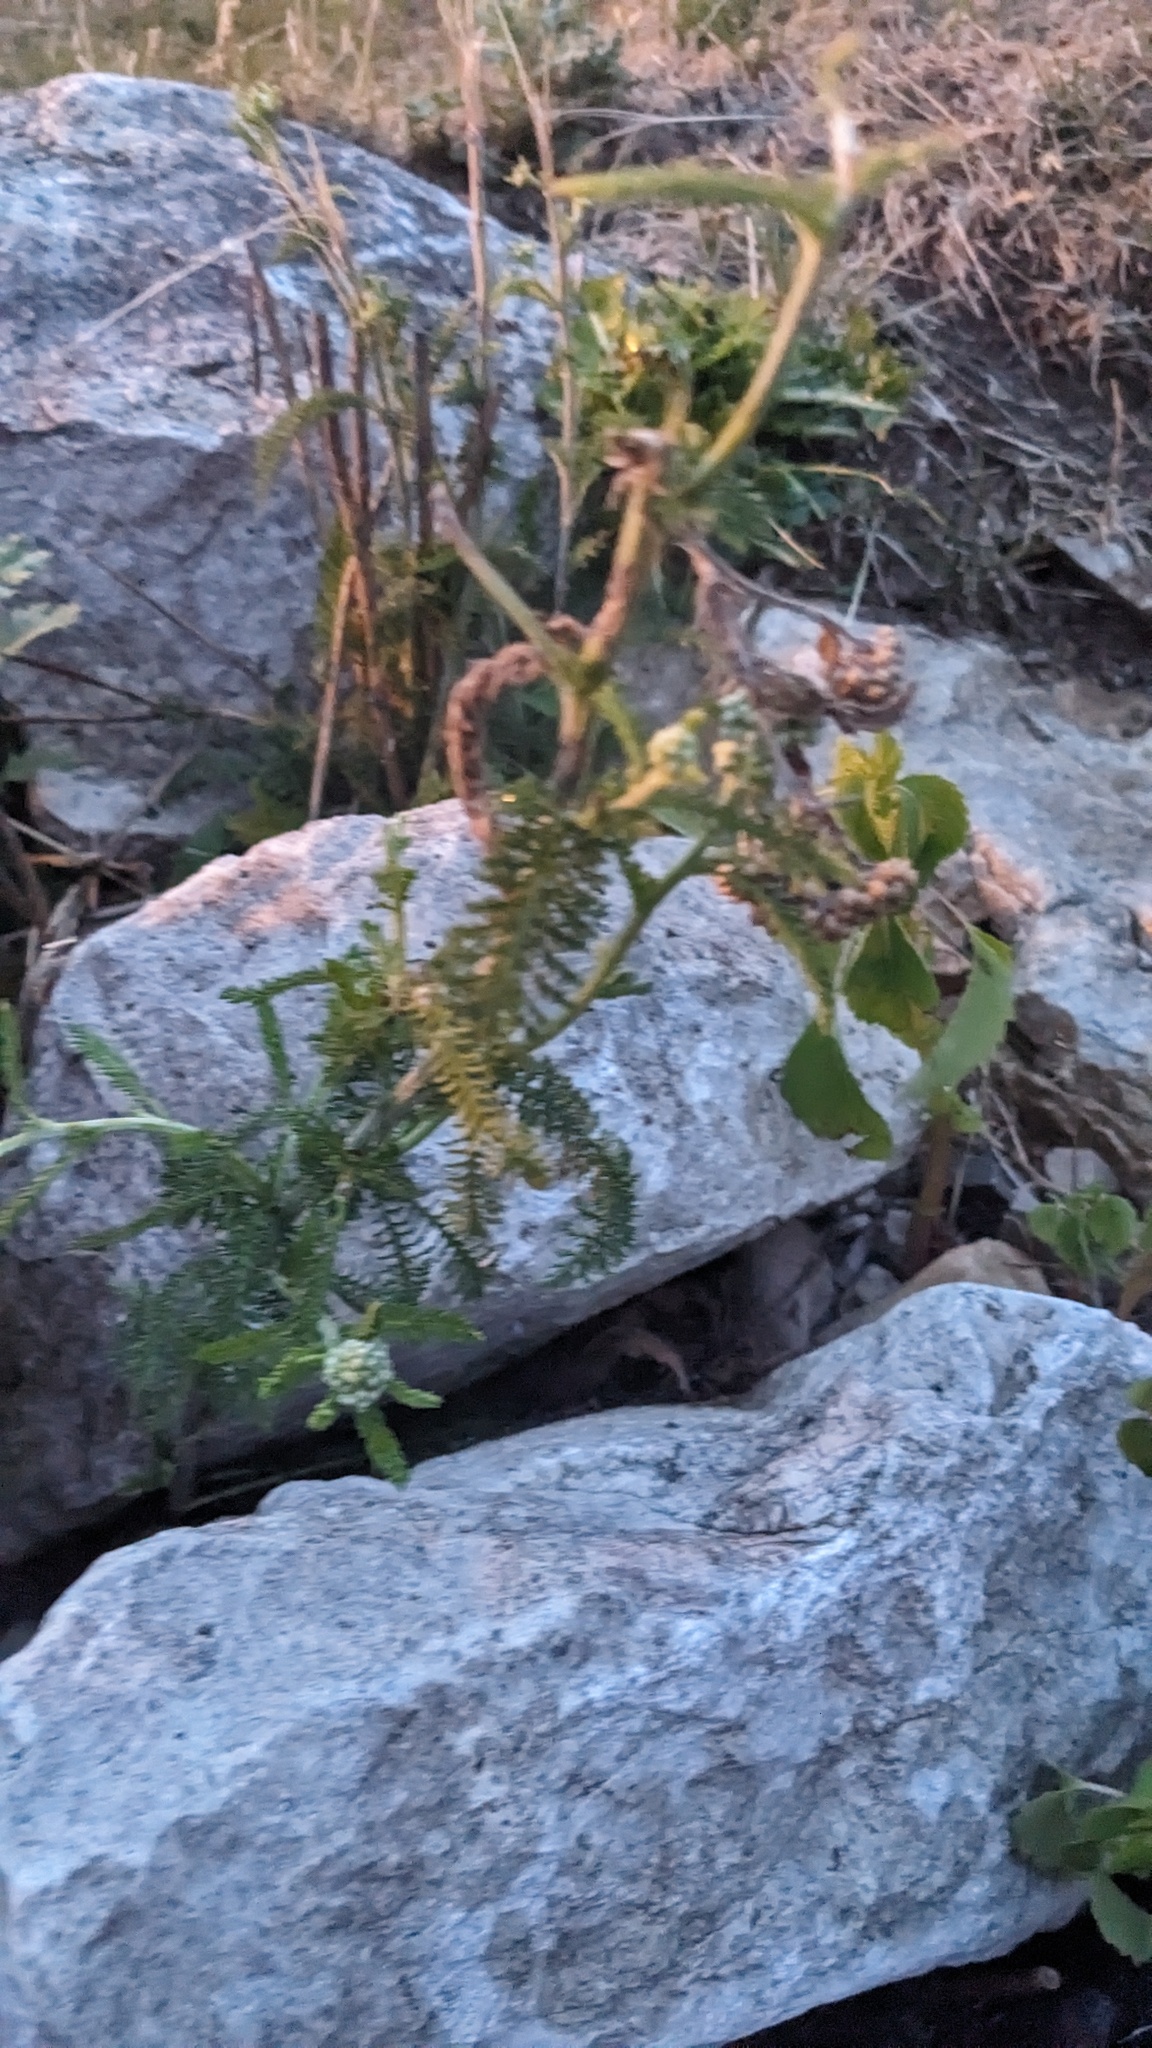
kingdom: Plantae
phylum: Tracheophyta
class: Magnoliopsida
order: Asterales
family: Asteraceae
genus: Achillea
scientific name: Achillea millefolium
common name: Yarrow
